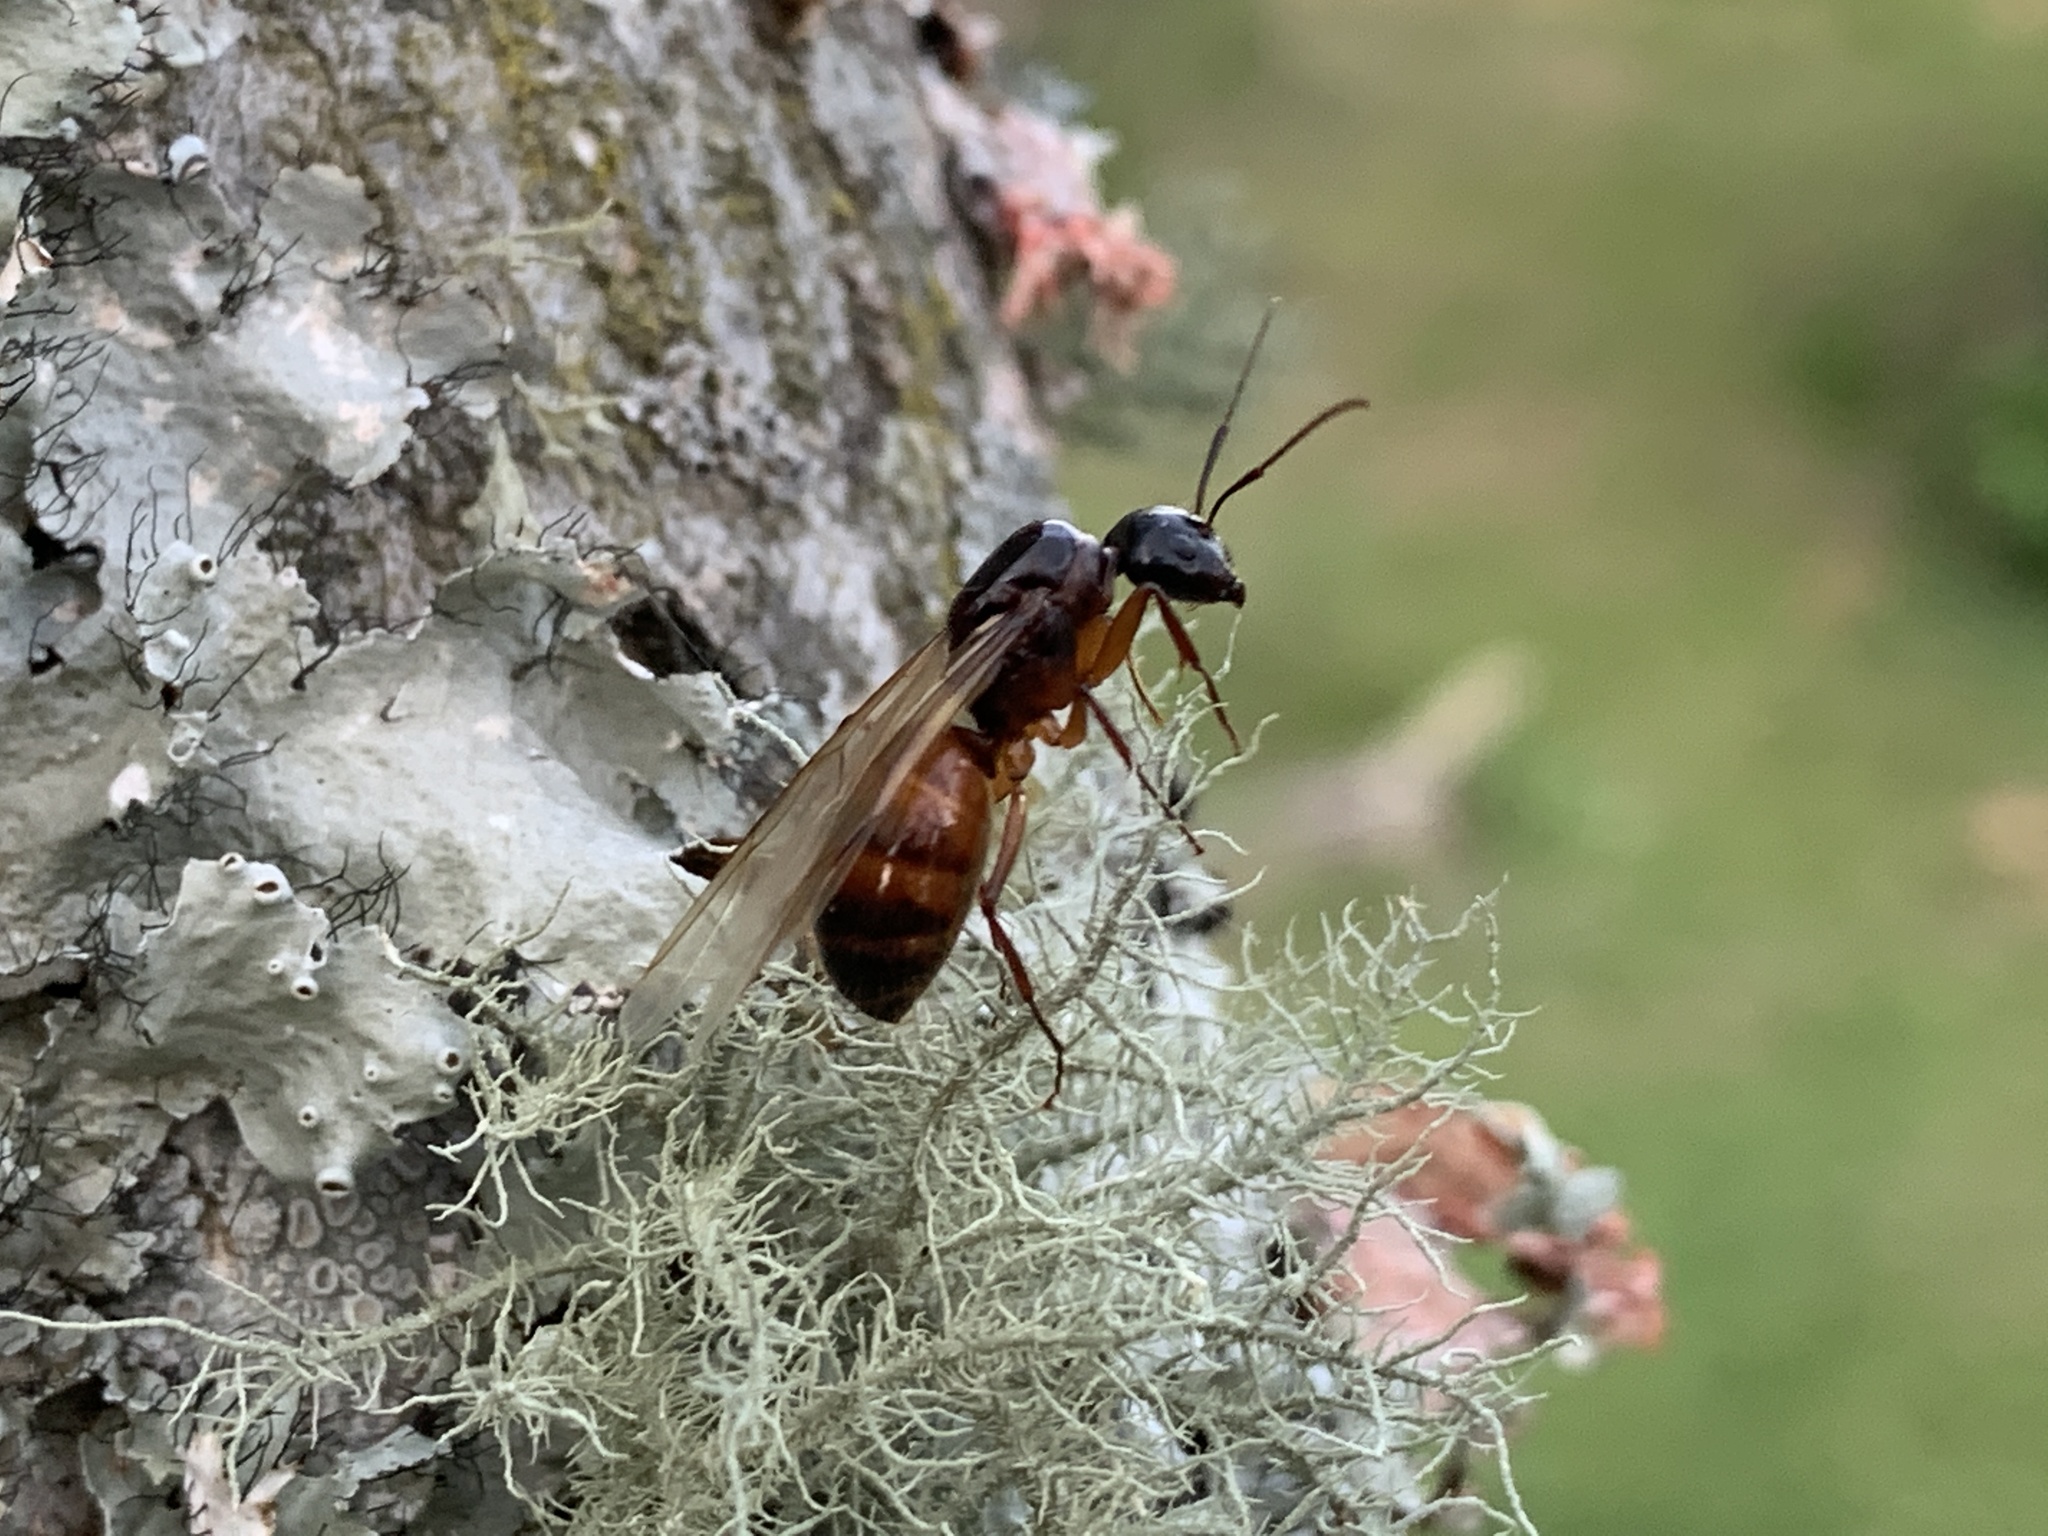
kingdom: Animalia
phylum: Arthropoda
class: Insecta
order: Hymenoptera
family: Formicidae
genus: Camponotus
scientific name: Camponotus americanus
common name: American carpenter ant
